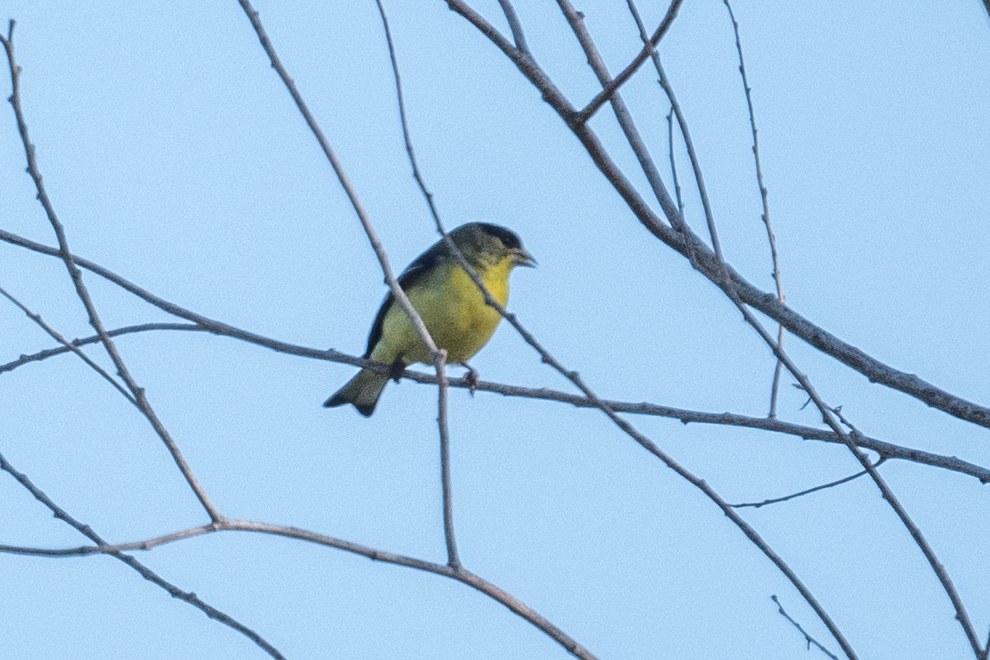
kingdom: Animalia
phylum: Chordata
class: Aves
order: Passeriformes
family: Fringillidae
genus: Spinus
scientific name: Spinus psaltria
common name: Lesser goldfinch
